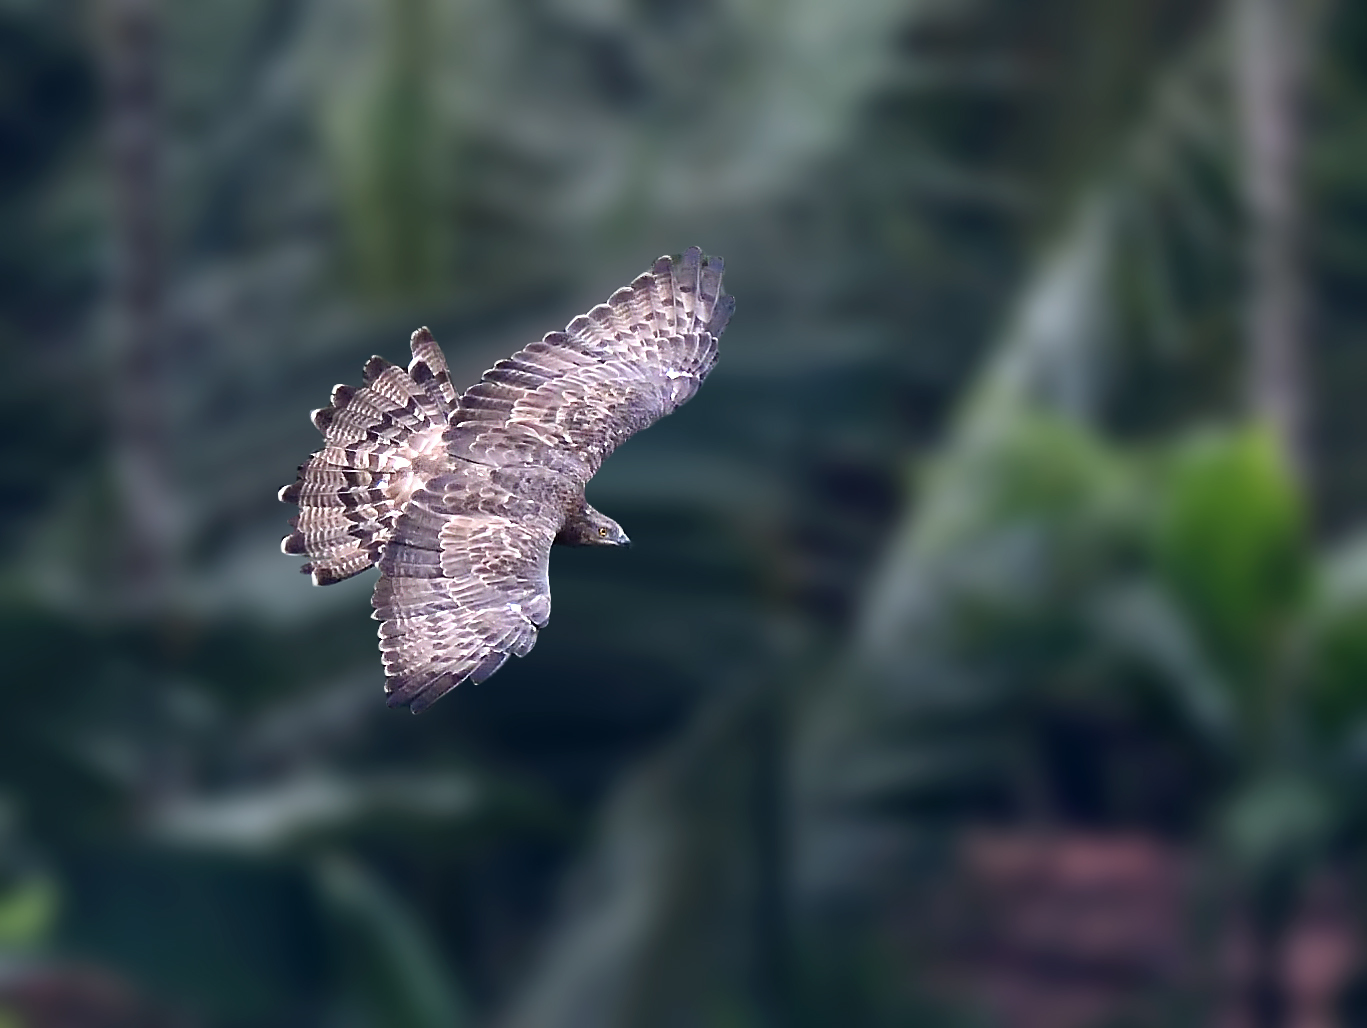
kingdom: Animalia
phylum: Chordata
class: Aves
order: Accipitriformes
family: Accipitridae
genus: Pernis
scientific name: Pernis ptilorhynchus
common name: Crested honey buzzard
